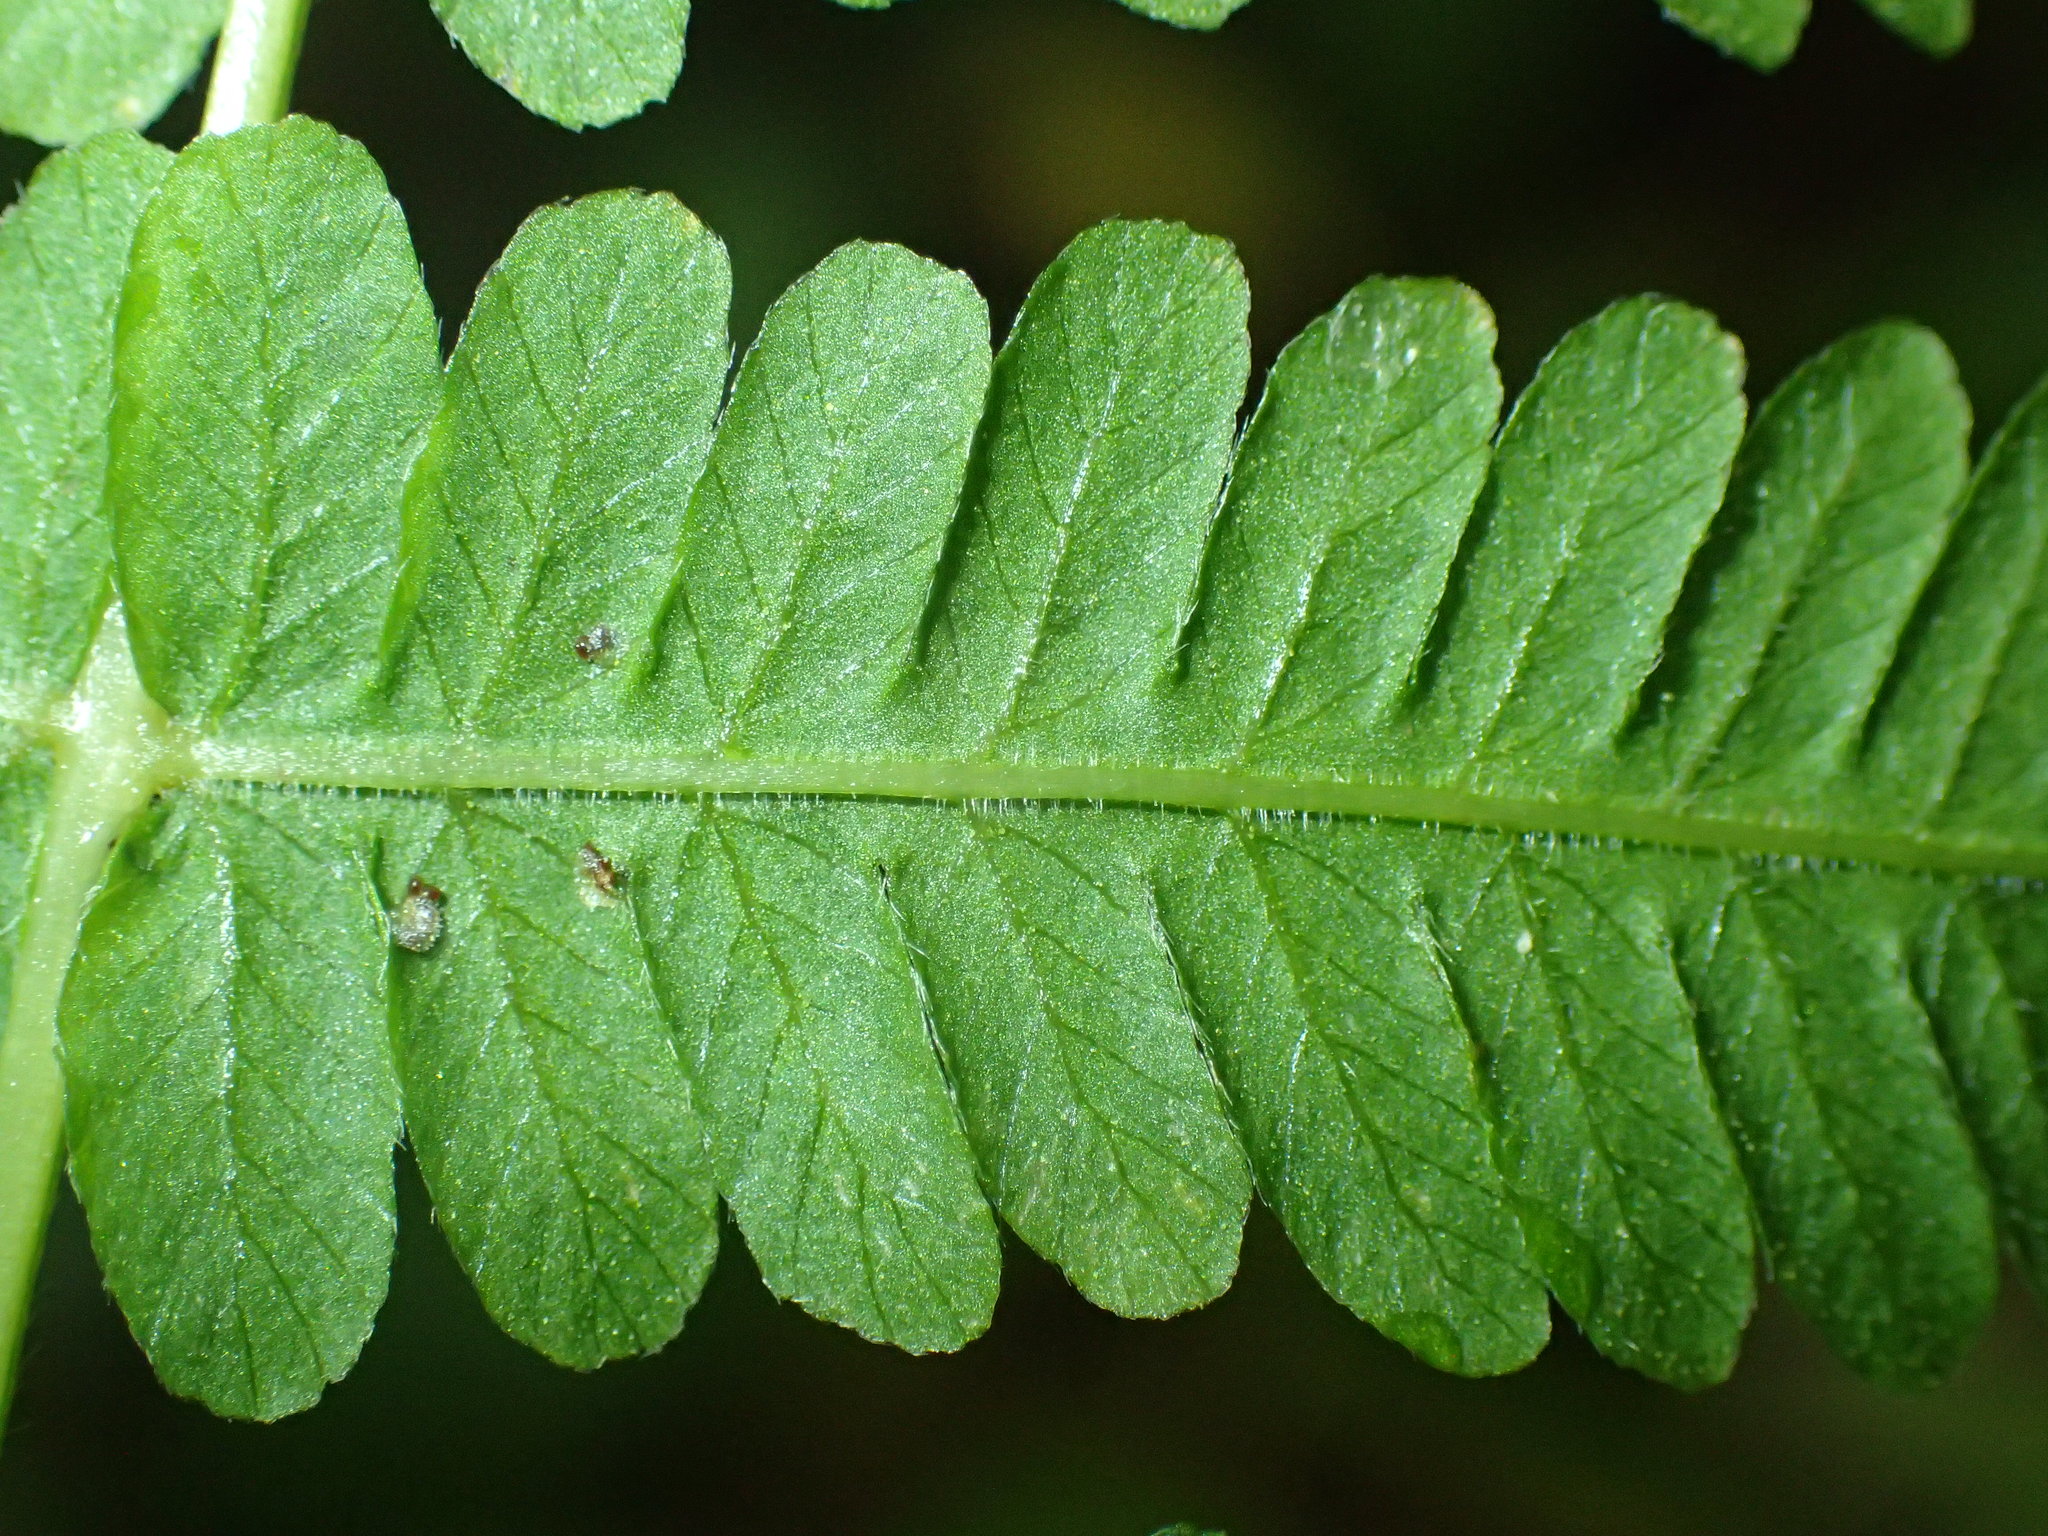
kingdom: Plantae
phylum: Tracheophyta
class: Polypodiopsida
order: Polypodiales
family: Thelypteridaceae
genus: Coryphopteris
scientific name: Coryphopteris simulata
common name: Bog fern
